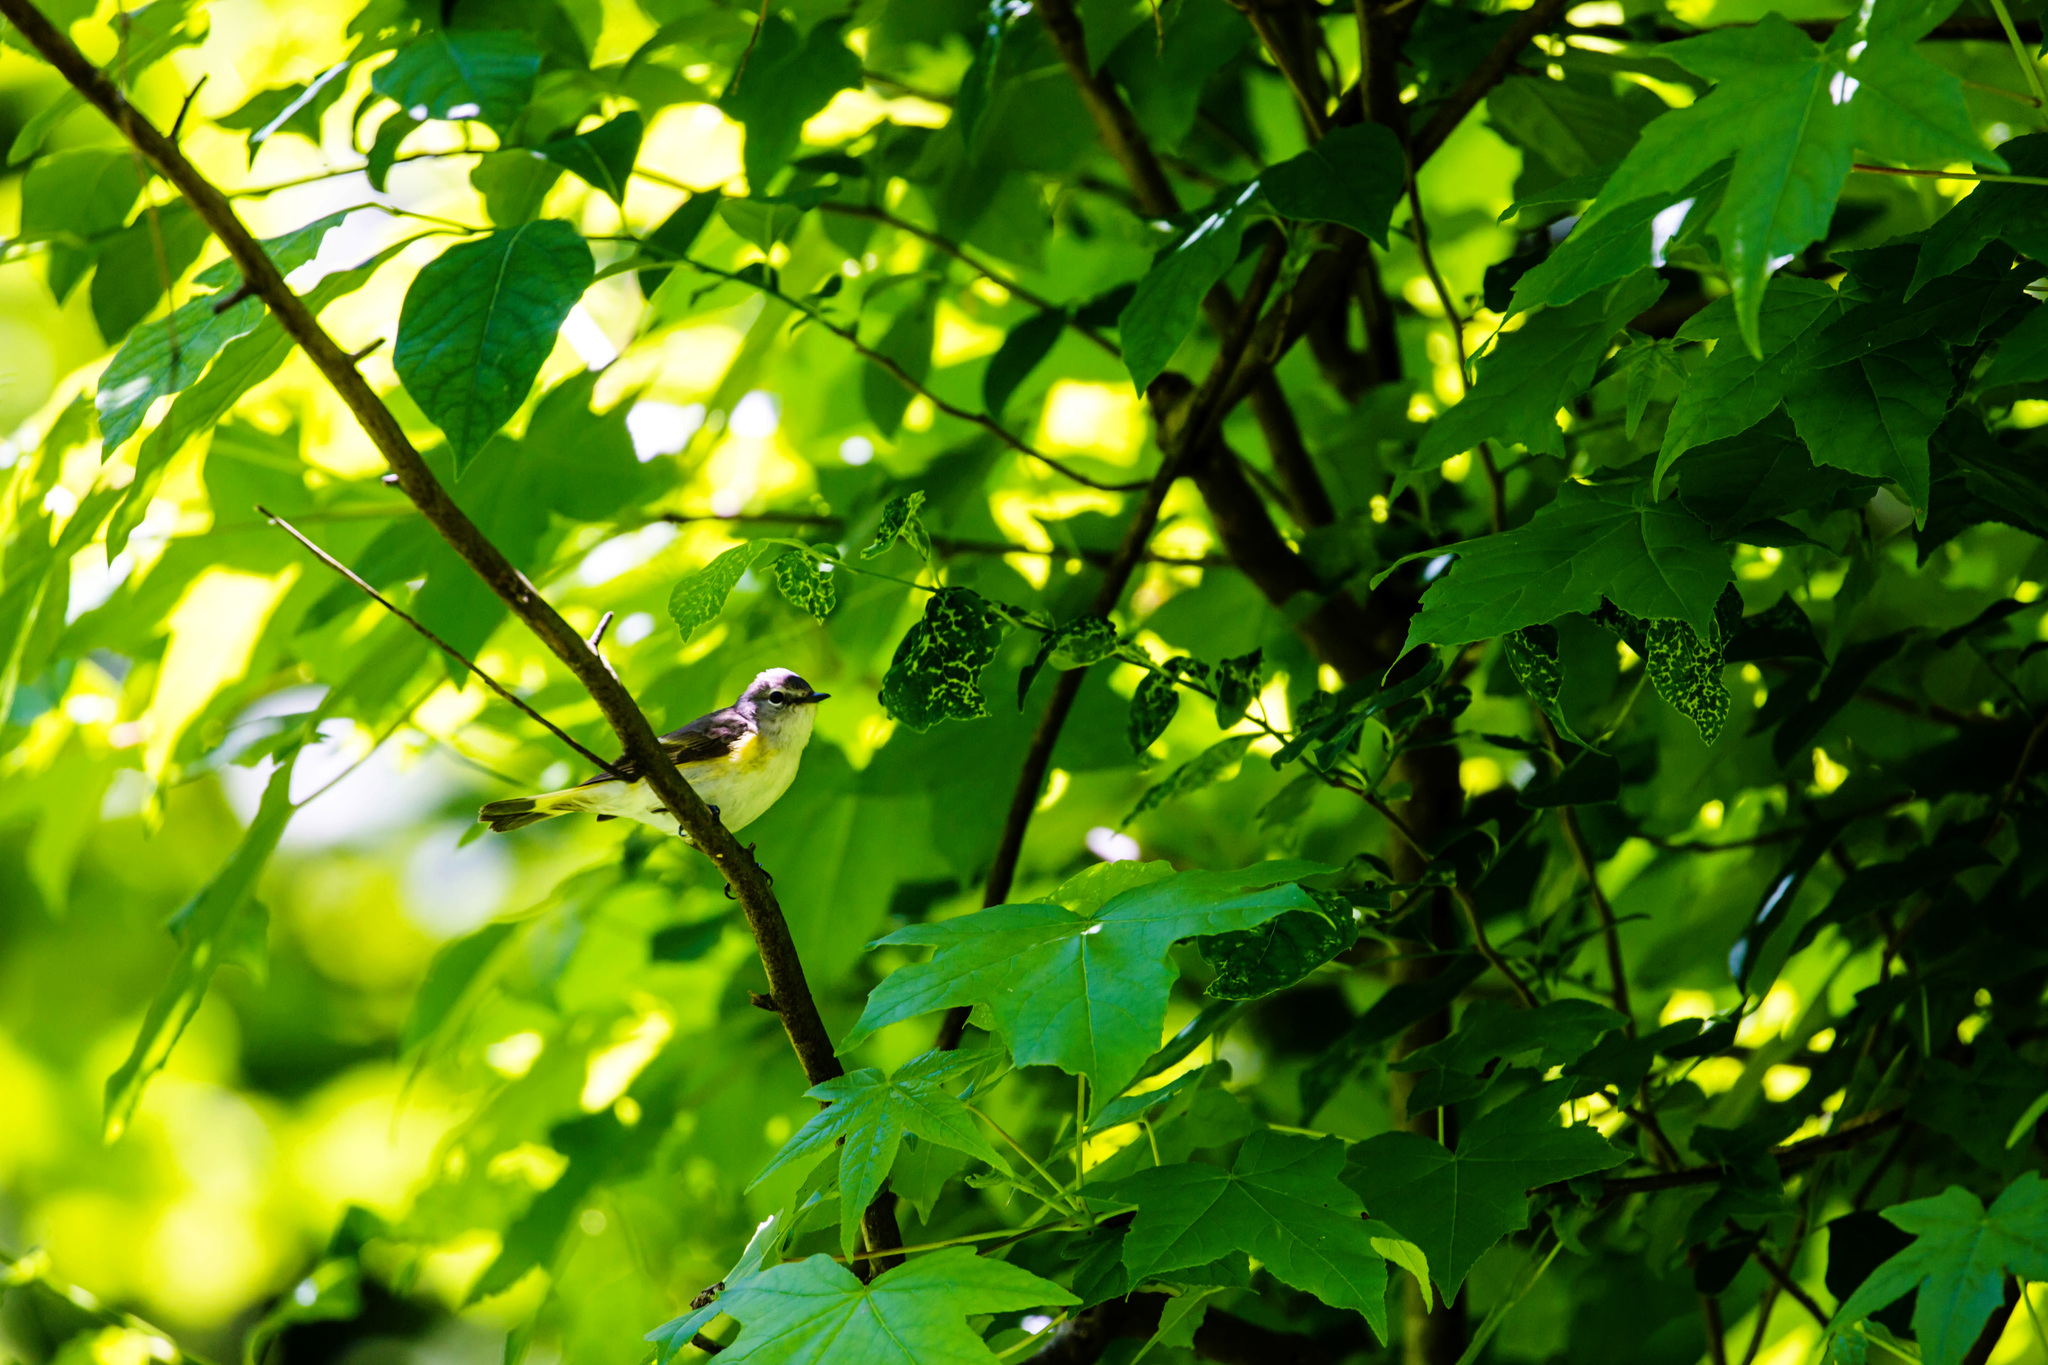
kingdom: Animalia
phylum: Chordata
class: Aves
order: Passeriformes
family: Parulidae
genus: Setophaga
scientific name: Setophaga ruticilla
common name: American redstart
